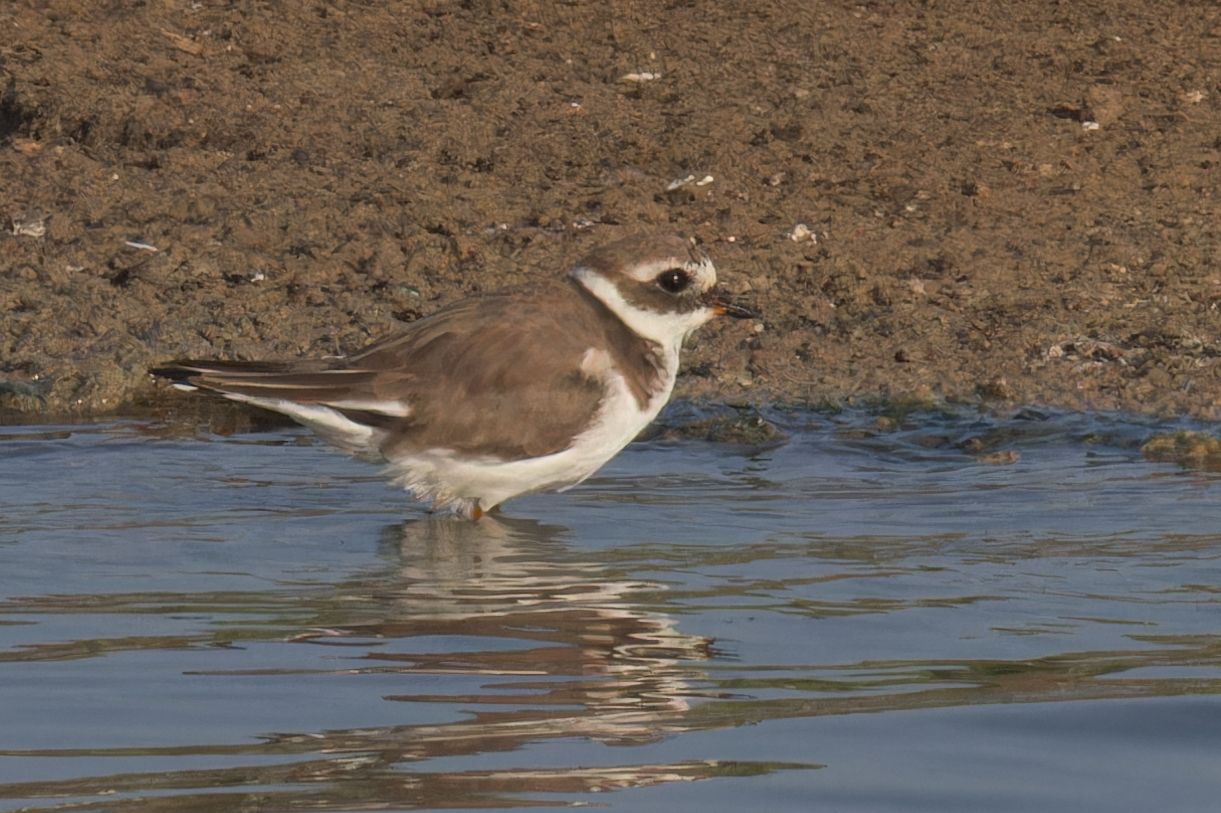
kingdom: Animalia
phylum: Chordata
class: Aves
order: Charadriiformes
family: Charadriidae
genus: Charadrius
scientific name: Charadrius hiaticula
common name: Common ringed plover
